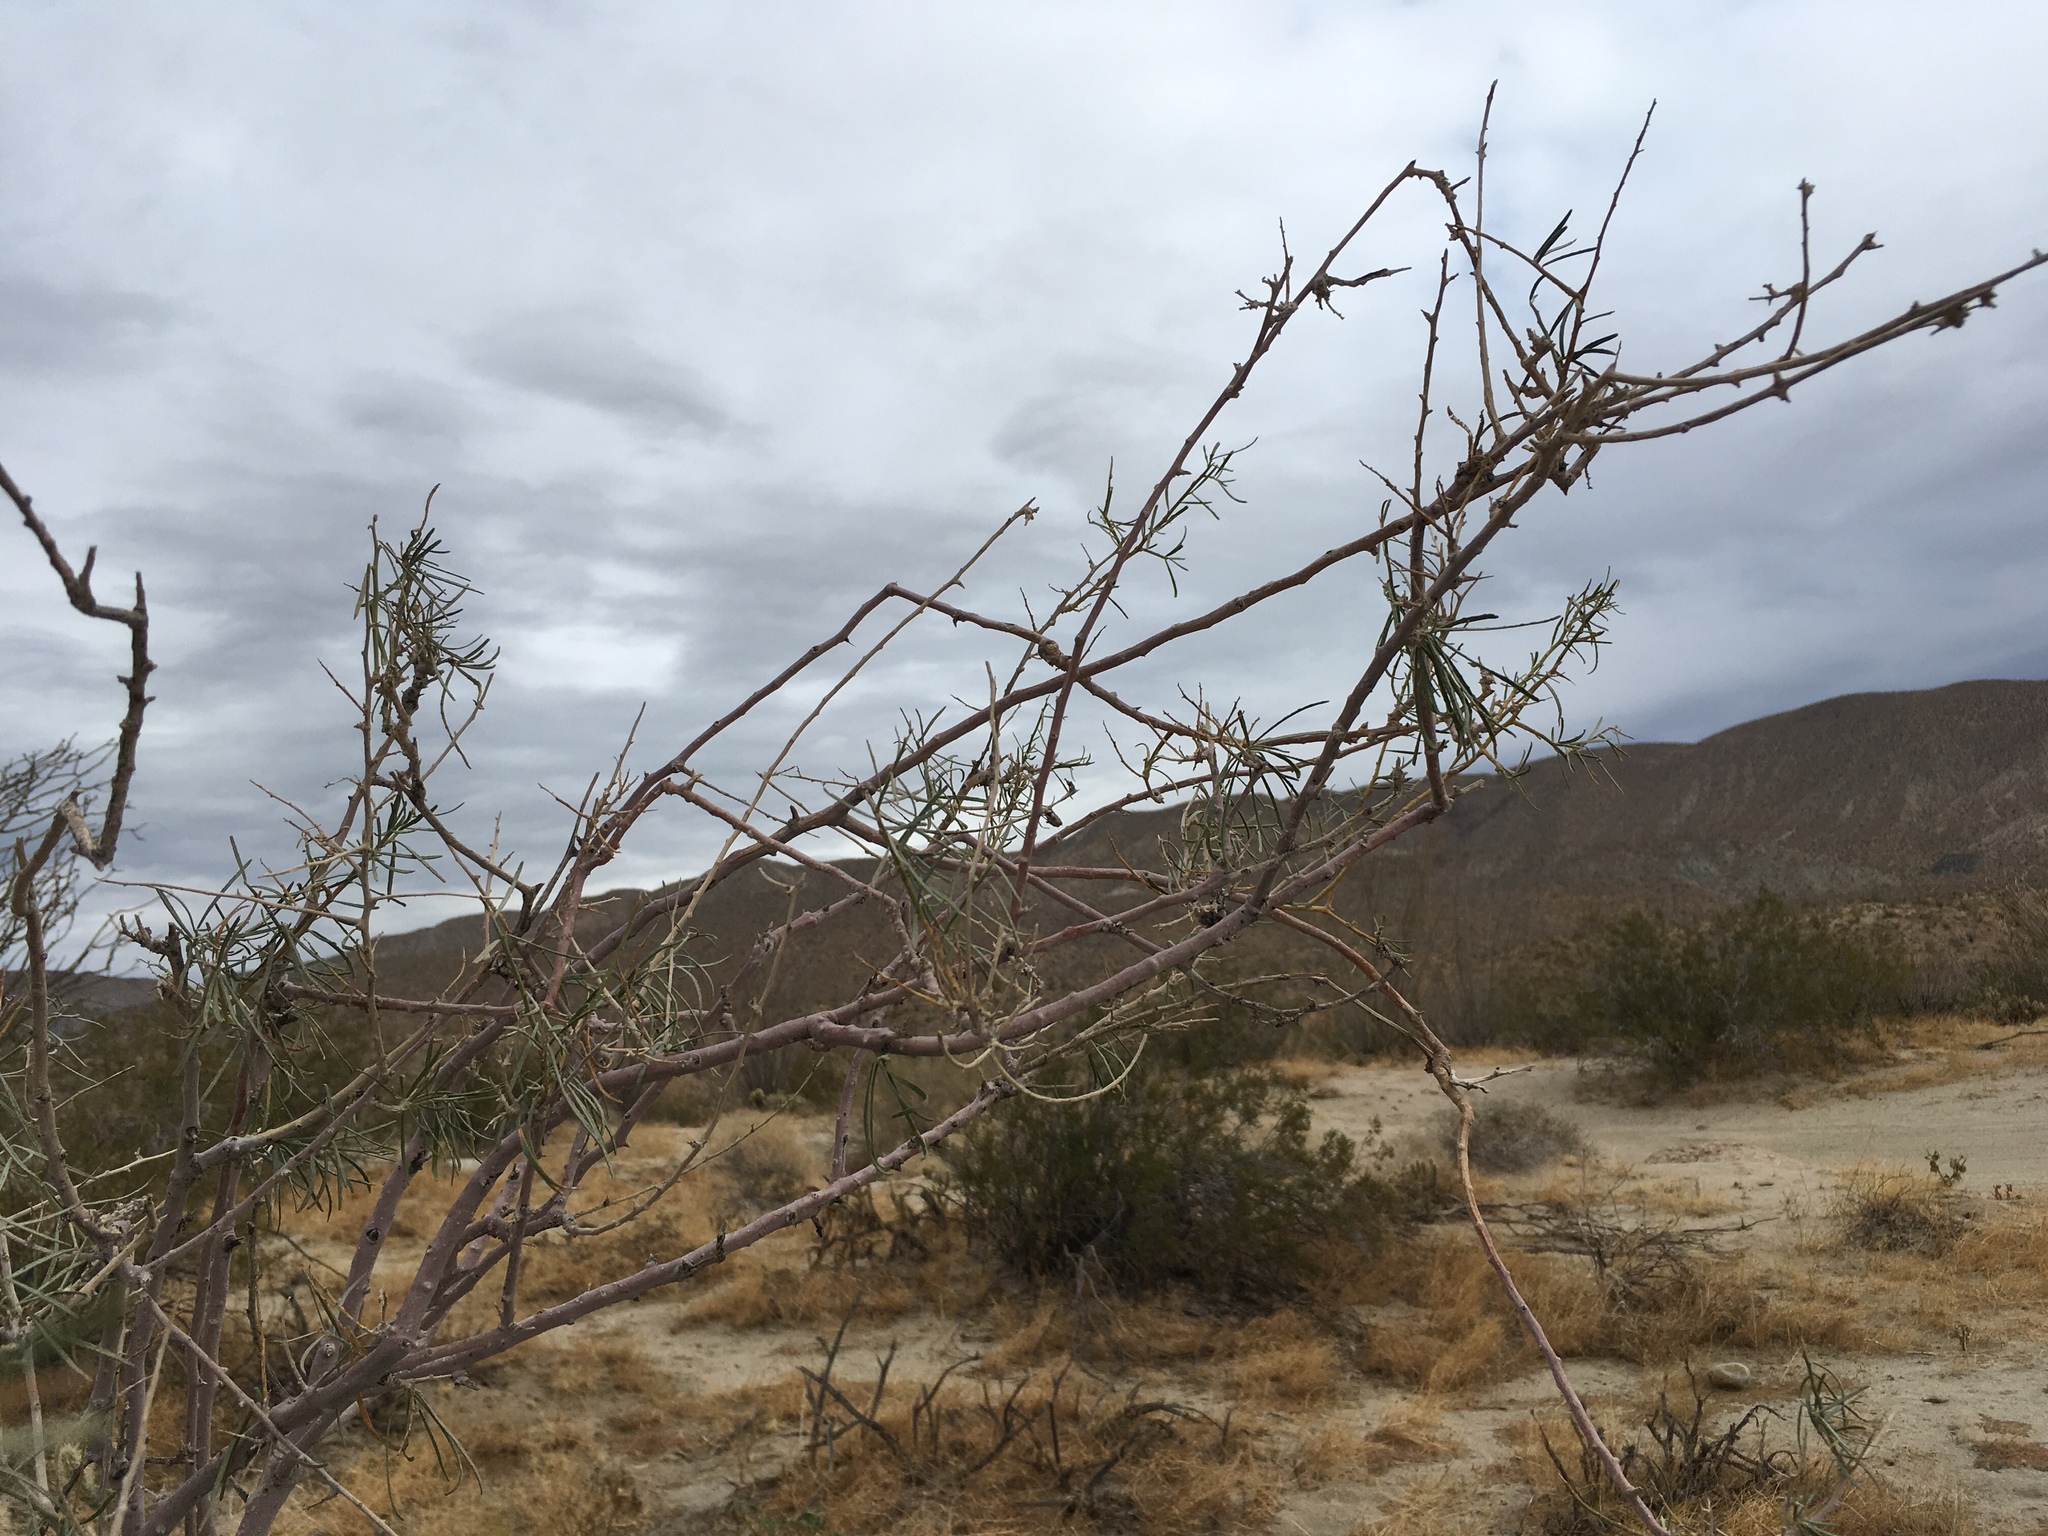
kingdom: Plantae
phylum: Tracheophyta
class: Magnoliopsida
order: Fabales
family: Fabaceae
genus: Psorothamnus
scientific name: Psorothamnus schottii
